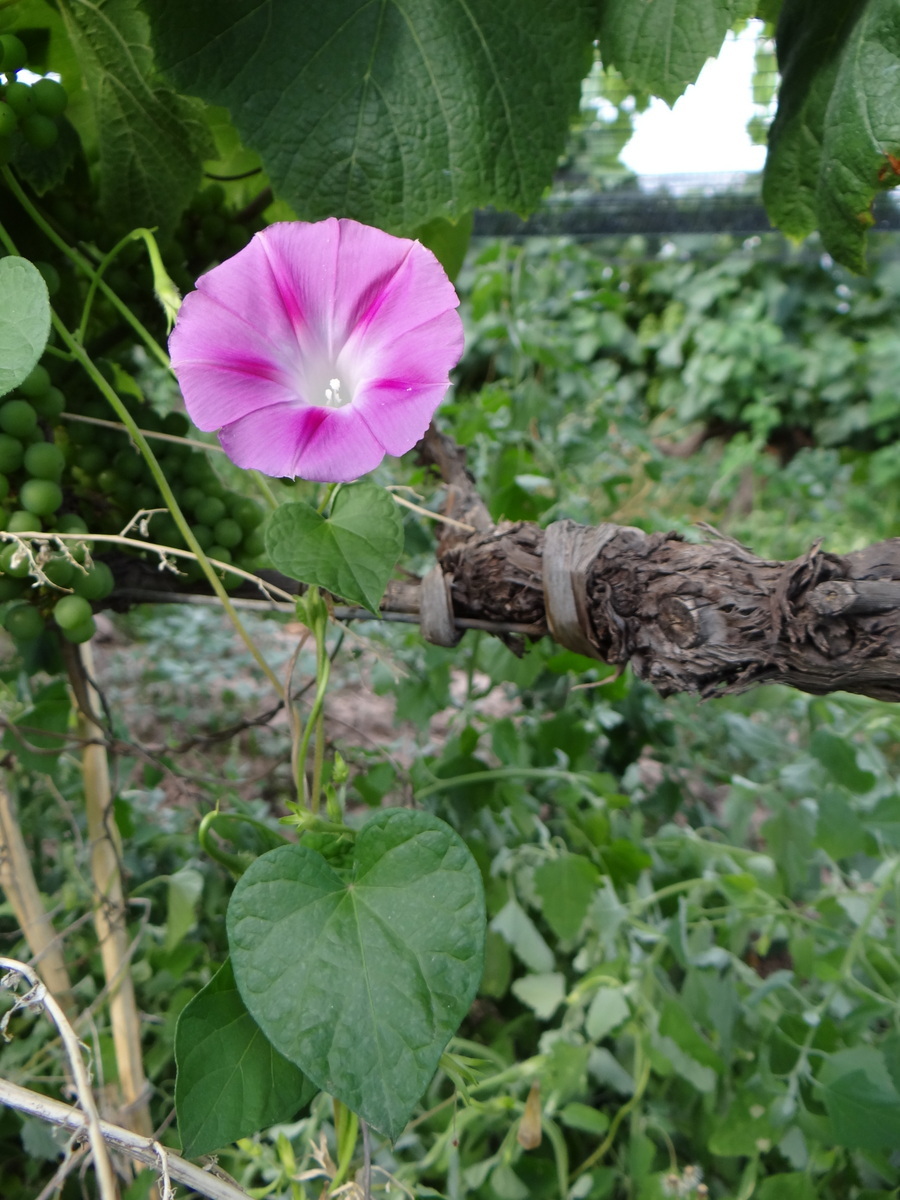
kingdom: Plantae
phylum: Tracheophyta
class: Magnoliopsida
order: Solanales
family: Convolvulaceae
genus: Ipomoea
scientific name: Ipomoea purpurea
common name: Common morning-glory
